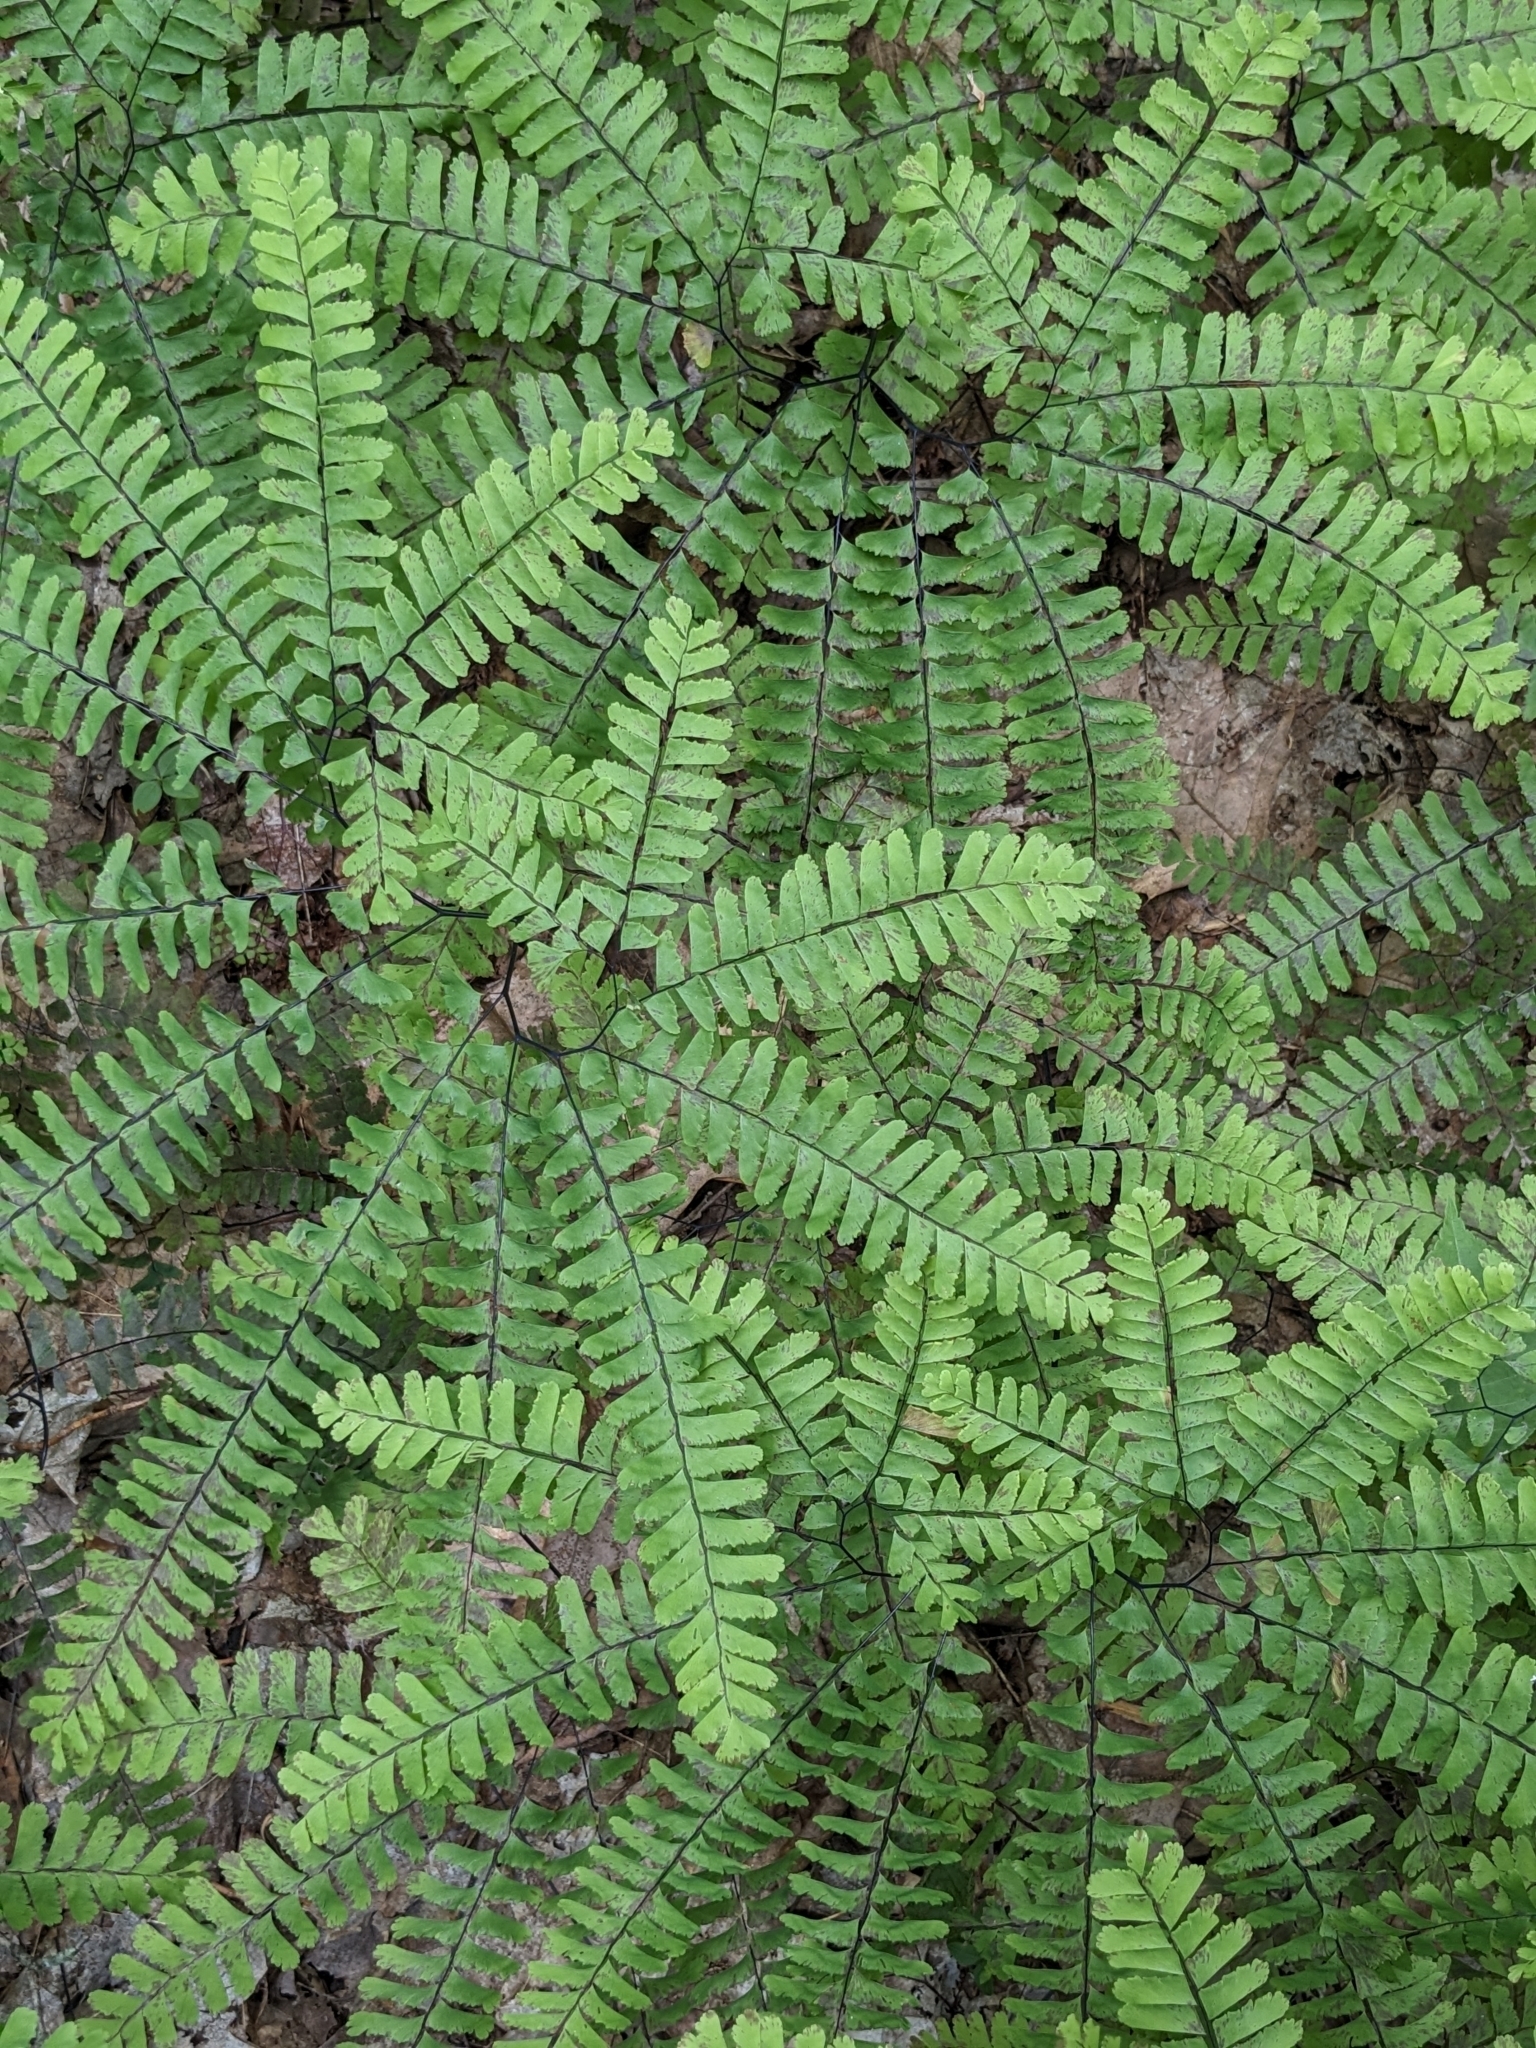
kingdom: Plantae
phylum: Tracheophyta
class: Polypodiopsida
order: Polypodiales
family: Pteridaceae
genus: Adiantum
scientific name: Adiantum pedatum
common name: Five-finger fern
